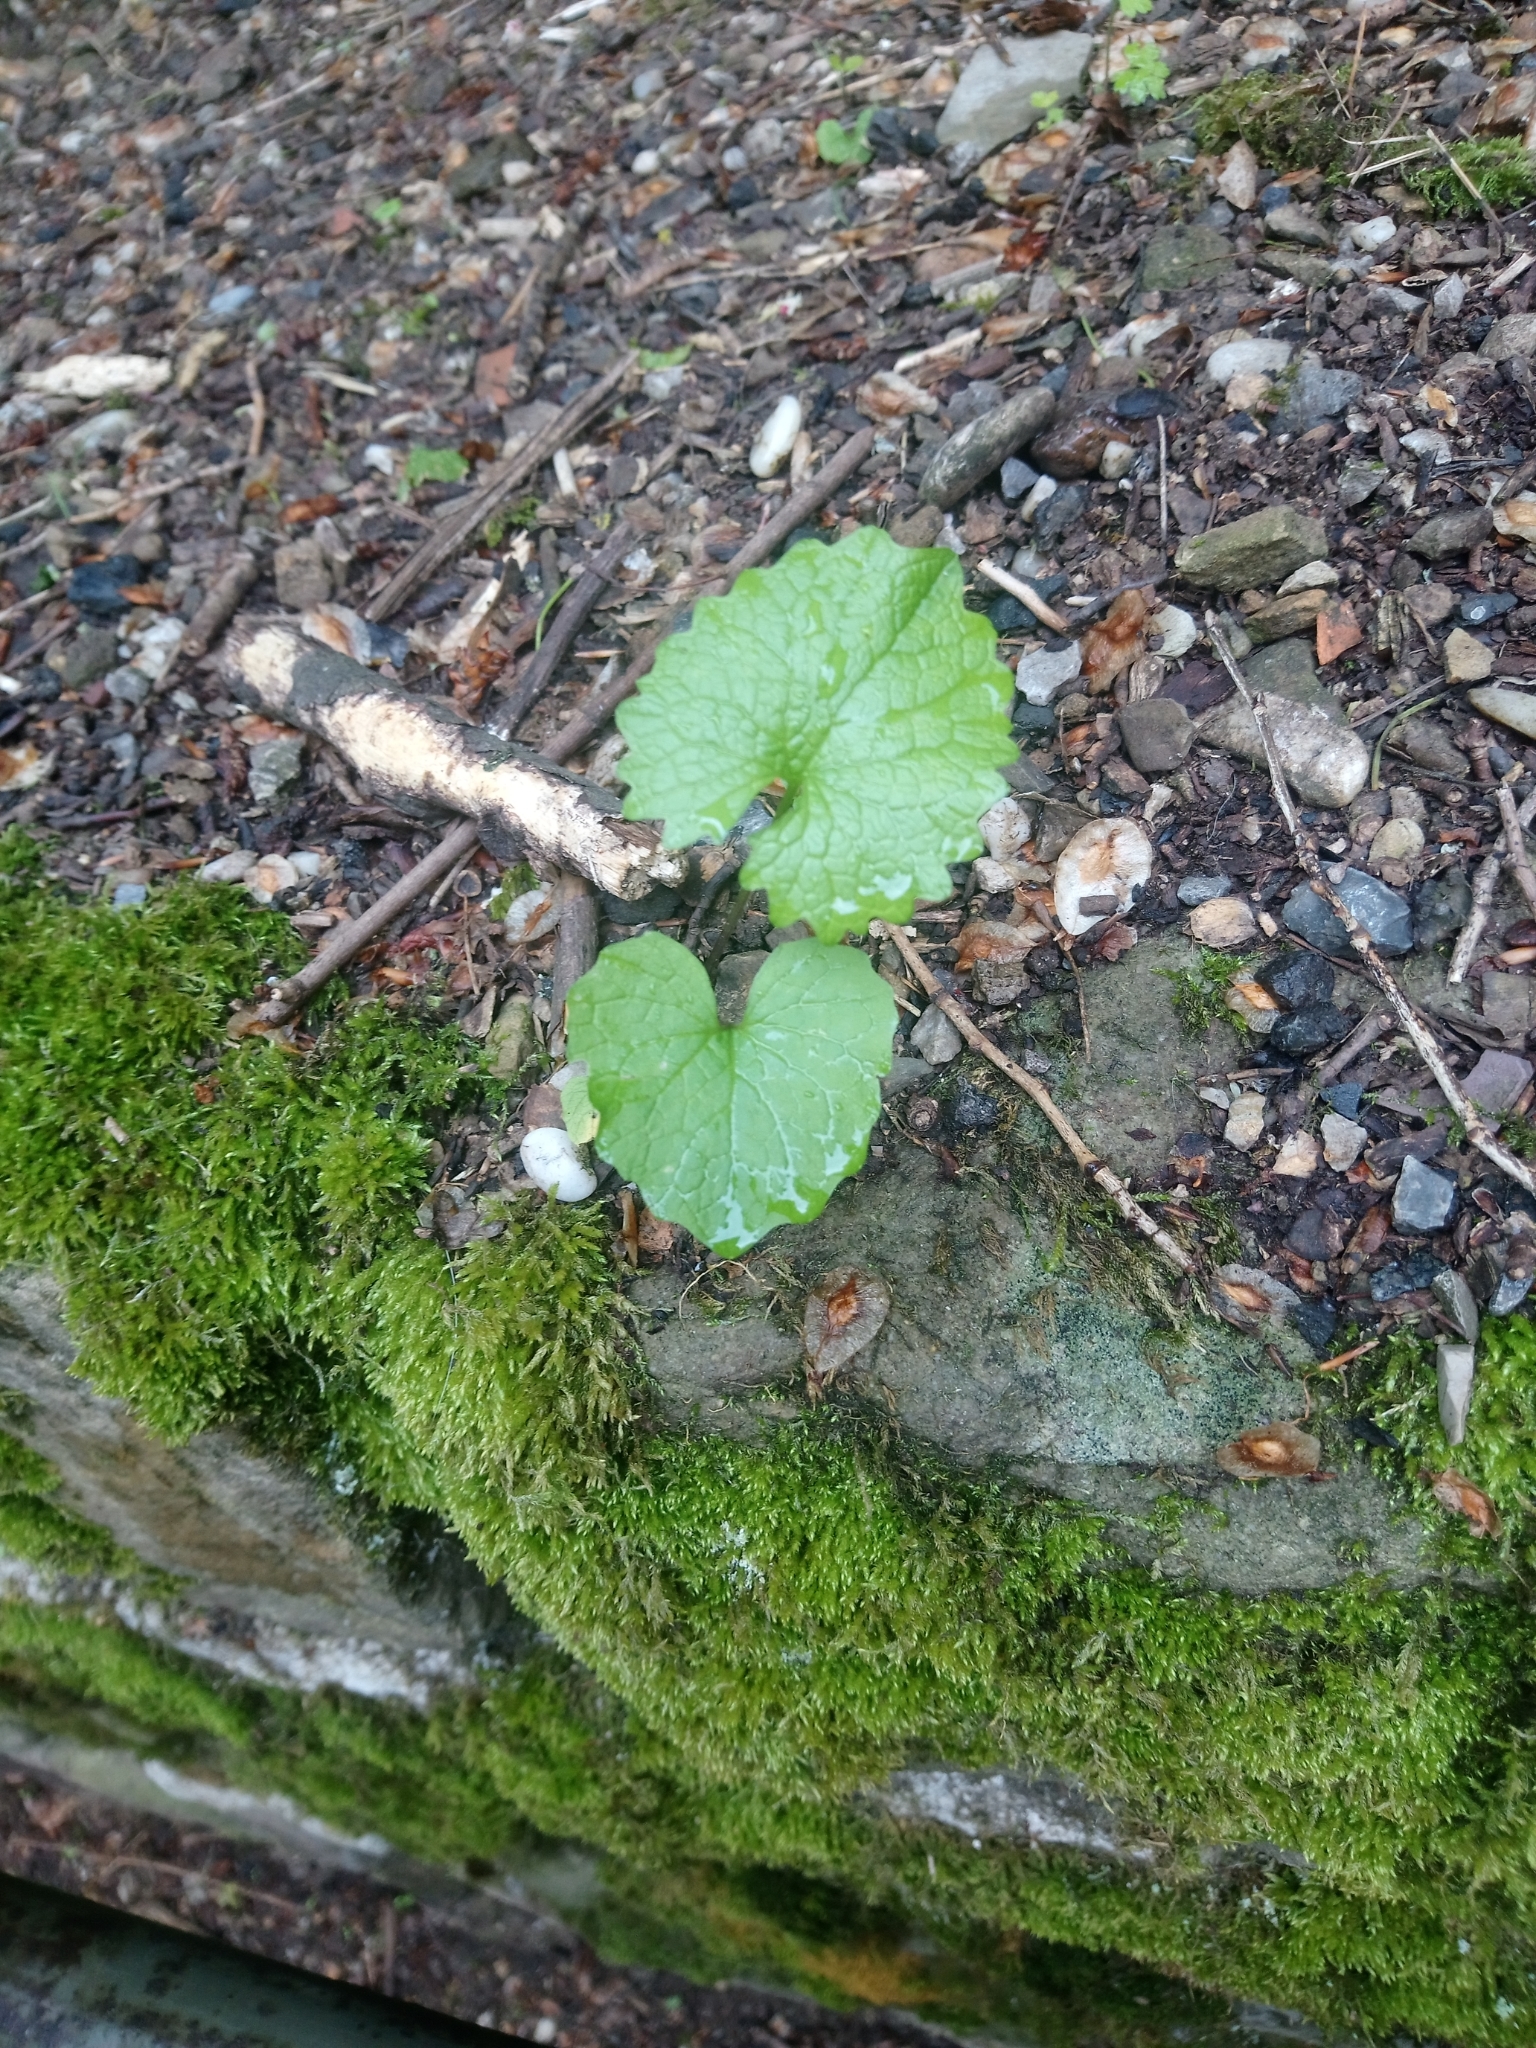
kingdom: Plantae
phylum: Tracheophyta
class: Magnoliopsida
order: Brassicales
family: Brassicaceae
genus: Alliaria
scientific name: Alliaria petiolata
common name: Garlic mustard
